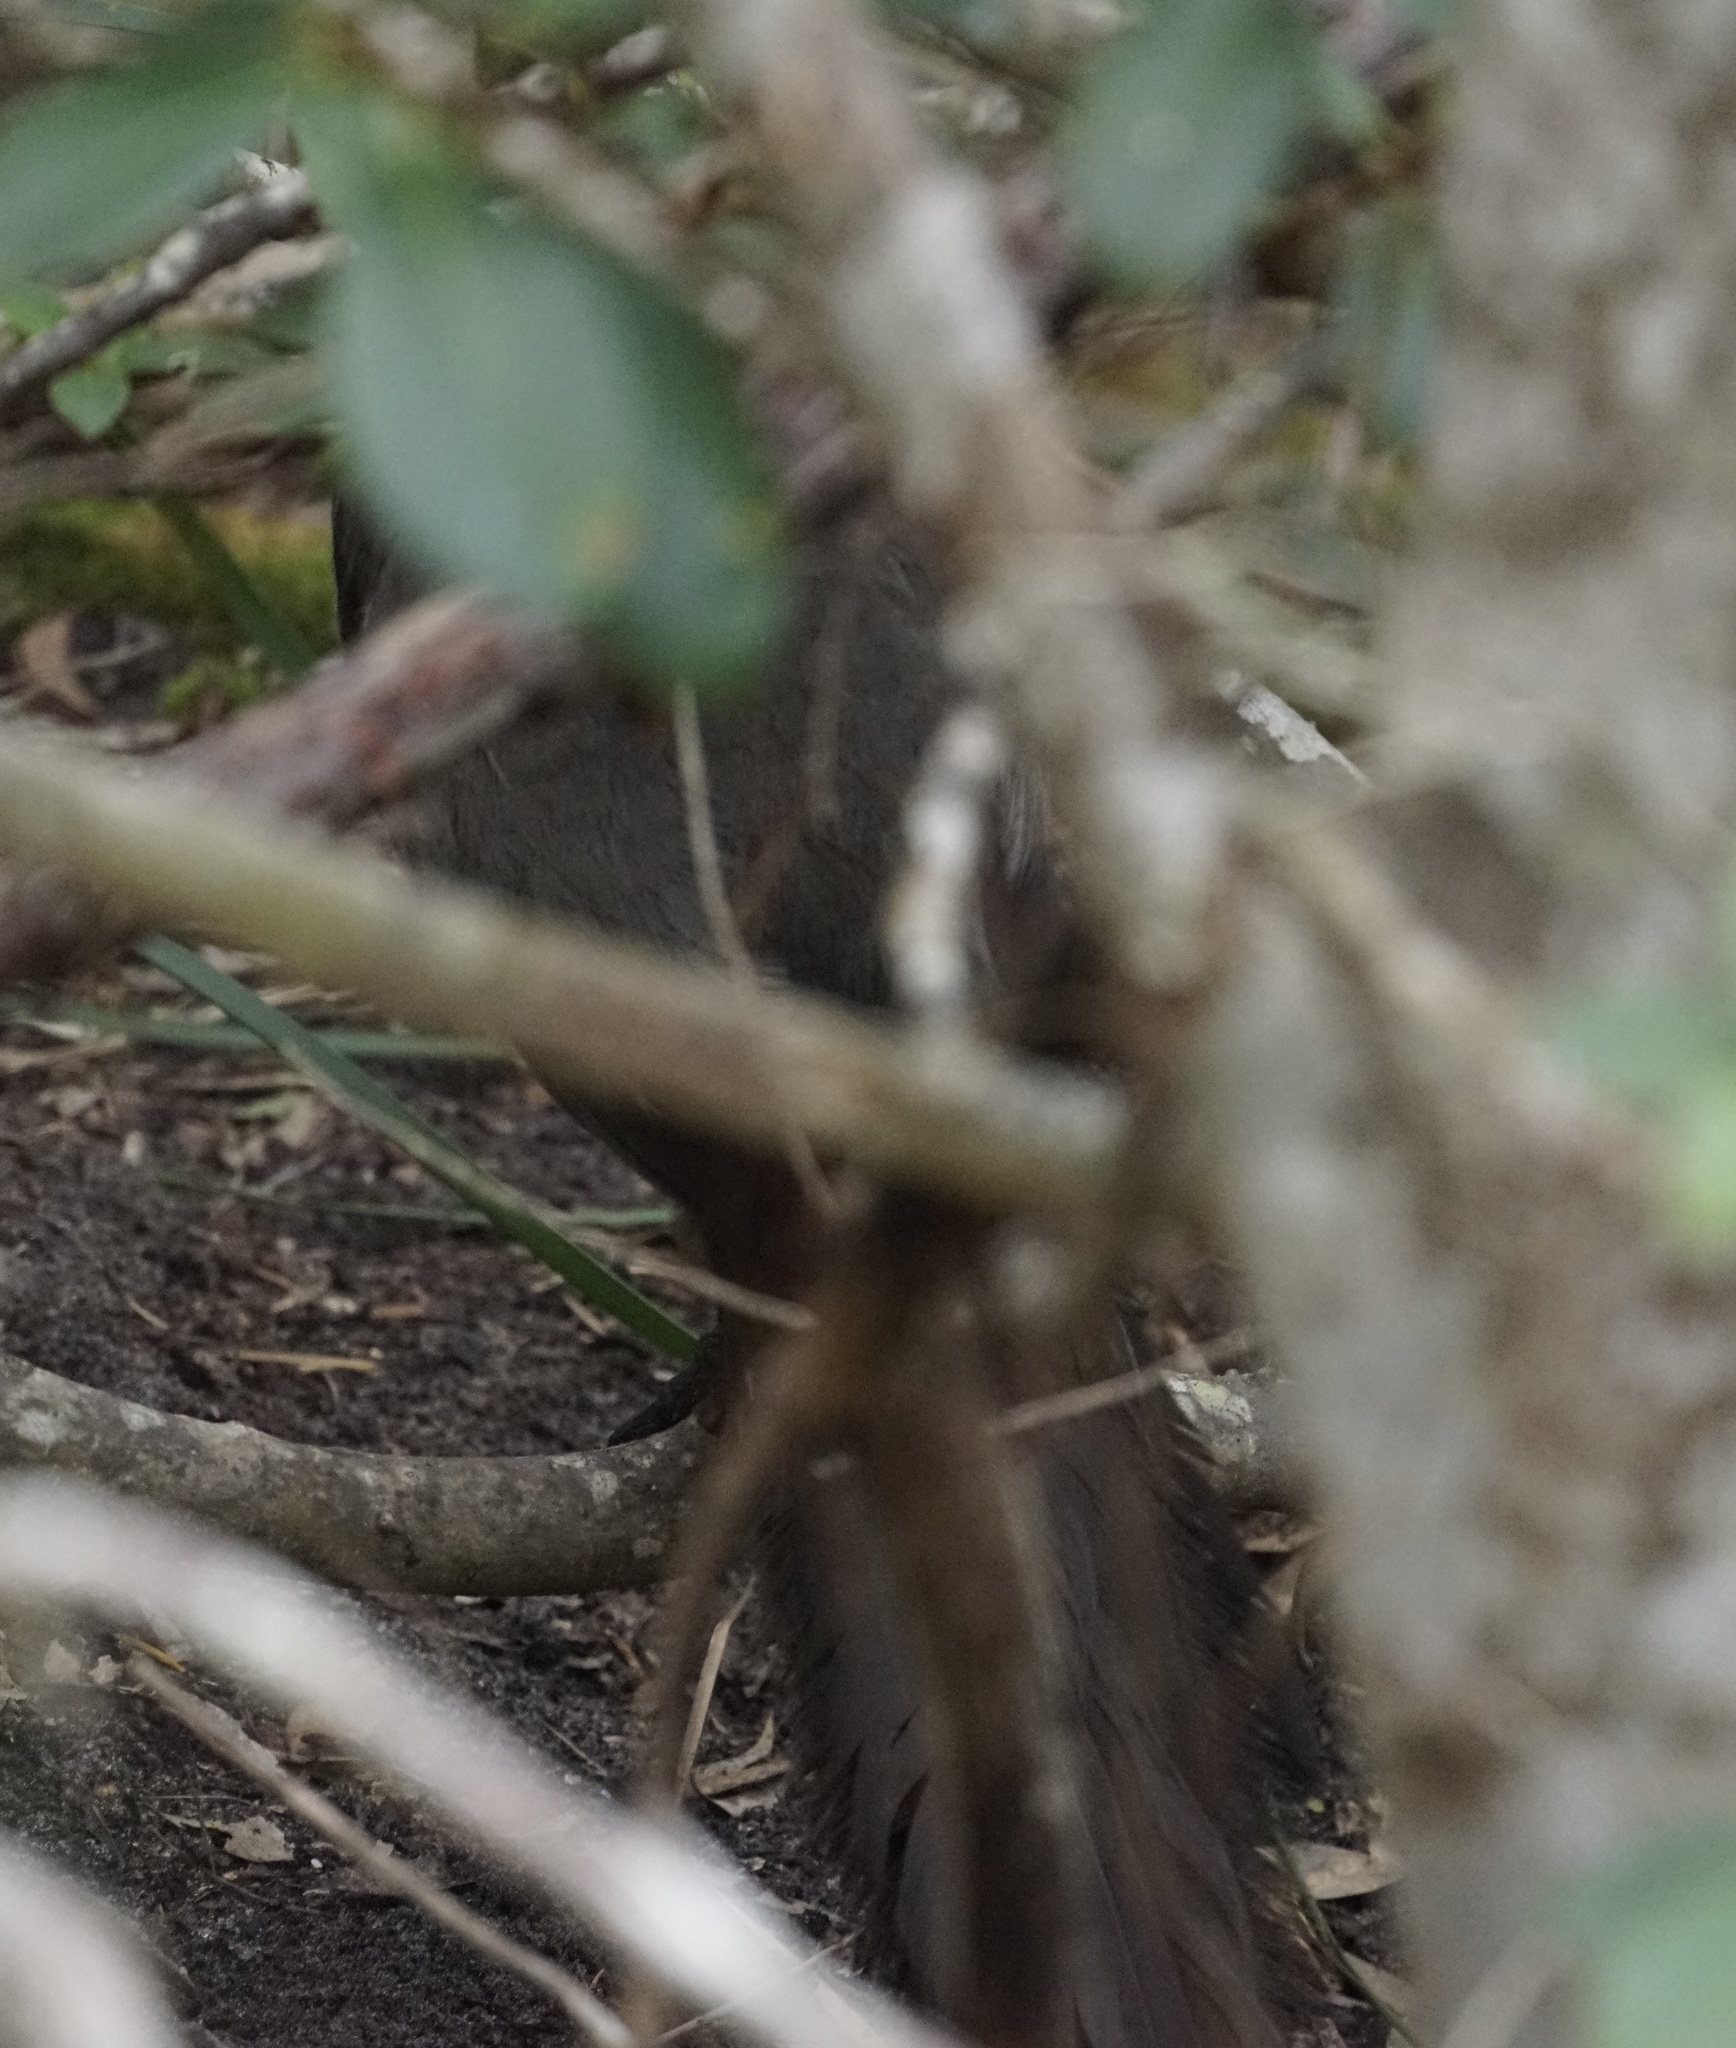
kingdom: Animalia
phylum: Chordata
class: Aves
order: Passeriformes
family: Menuridae
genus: Menura
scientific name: Menura novaehollandiae
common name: Superb lyrebird
